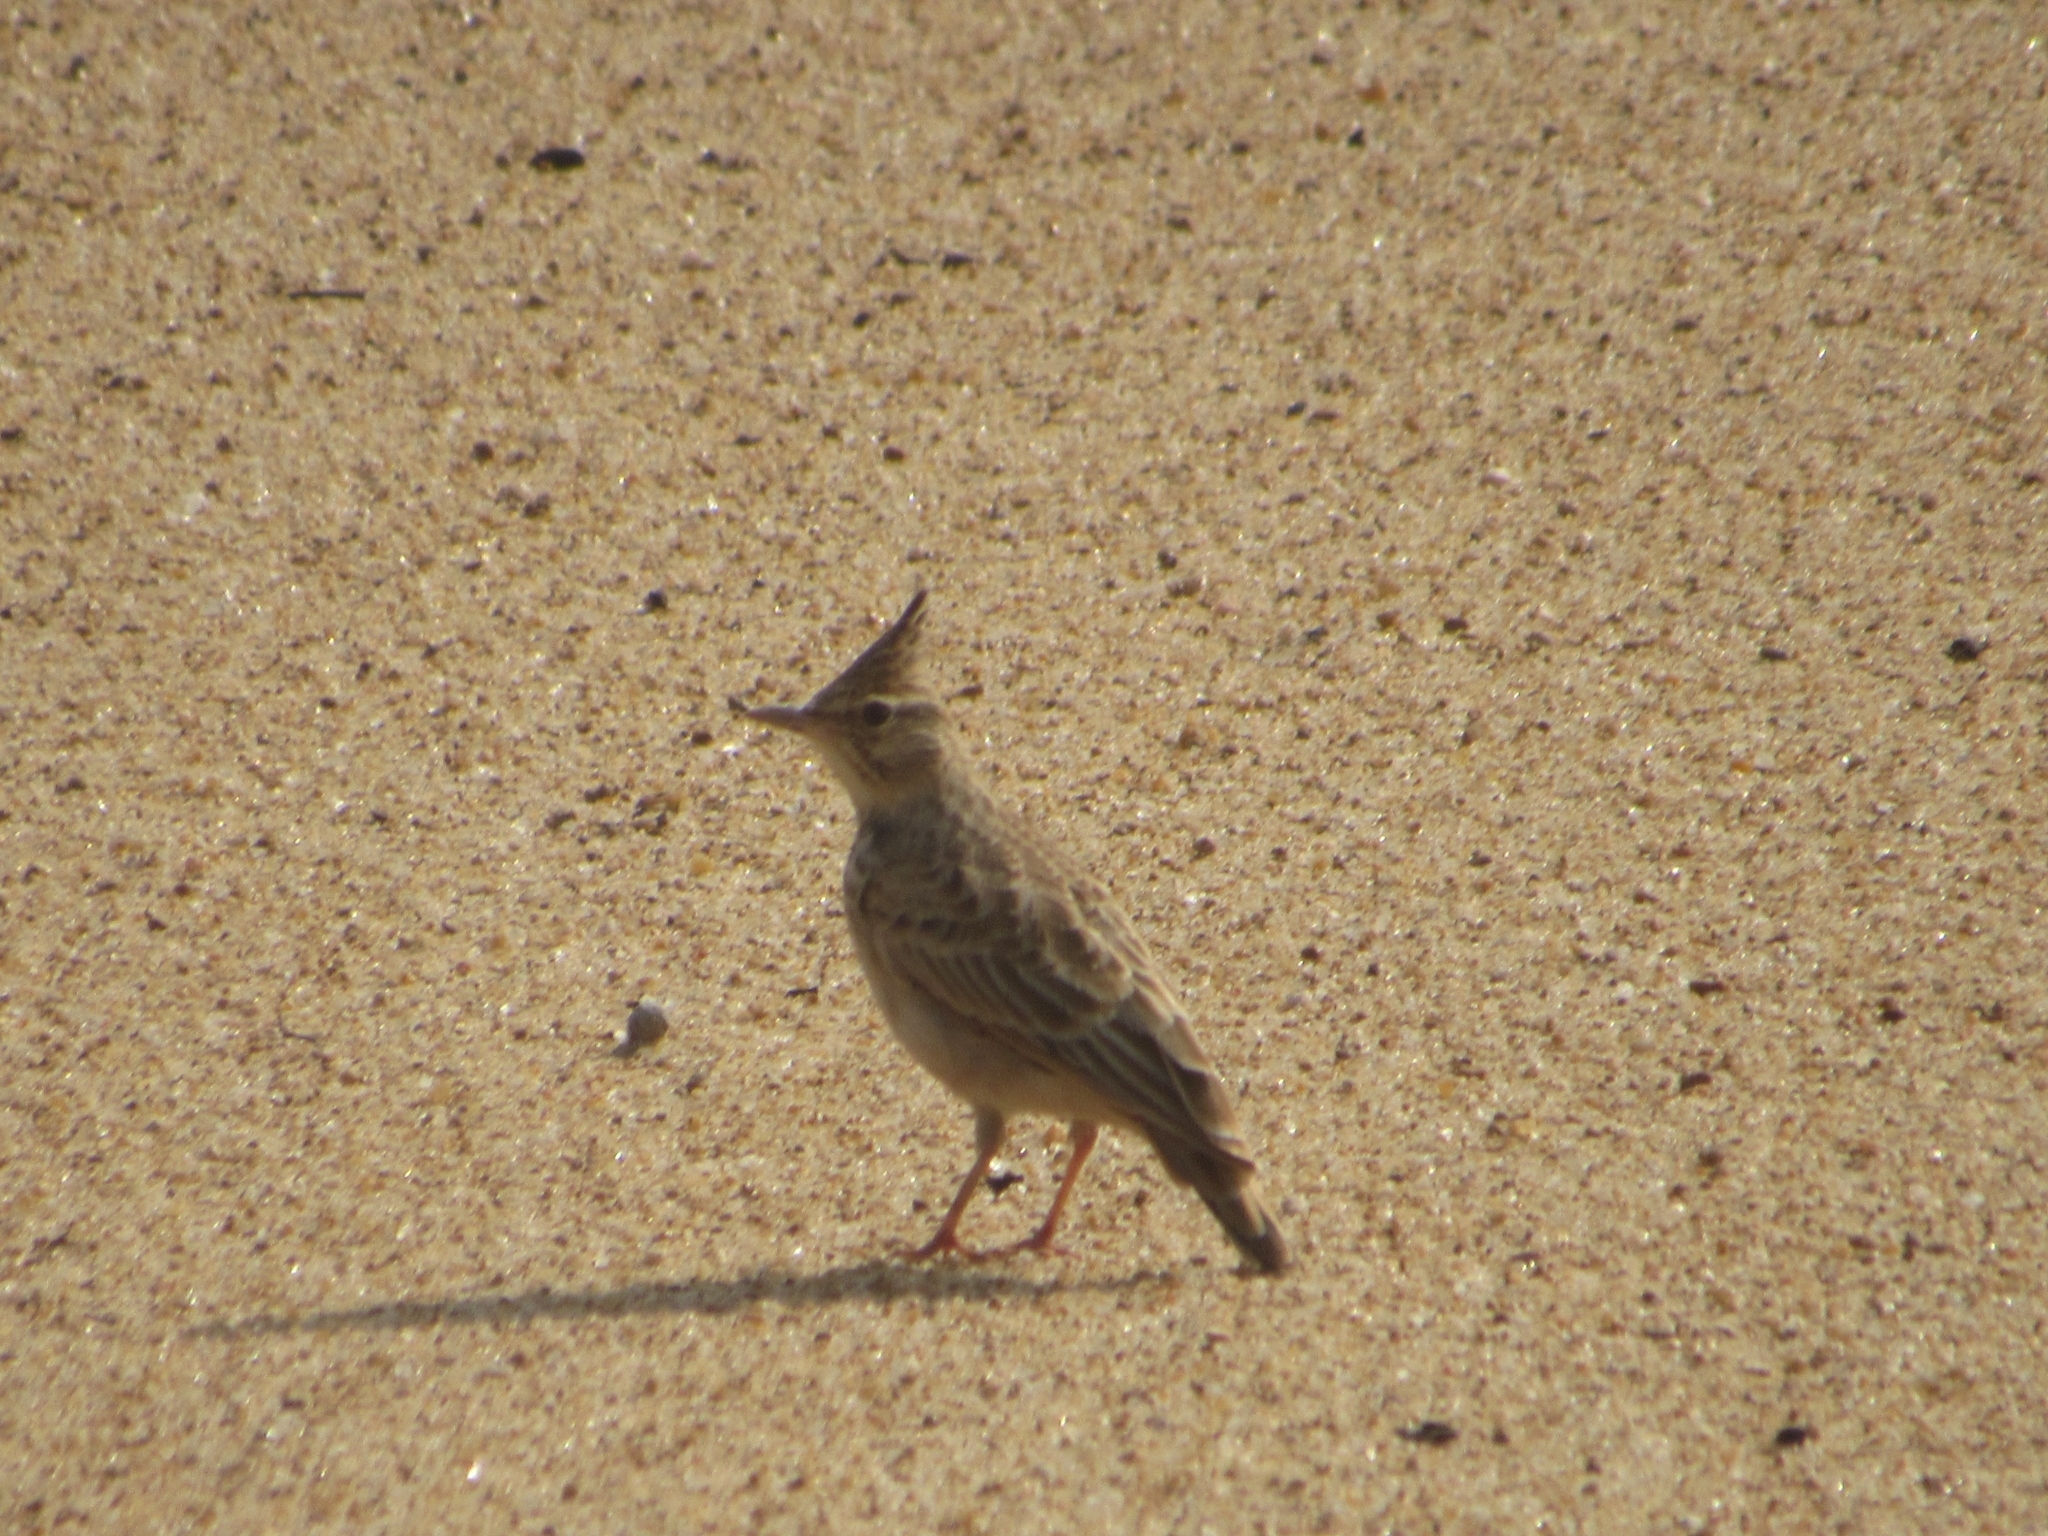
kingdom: Animalia
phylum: Chordata
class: Aves
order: Passeriformes
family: Alaudidae
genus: Galerida
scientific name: Galerida cristata
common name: Crested lark
